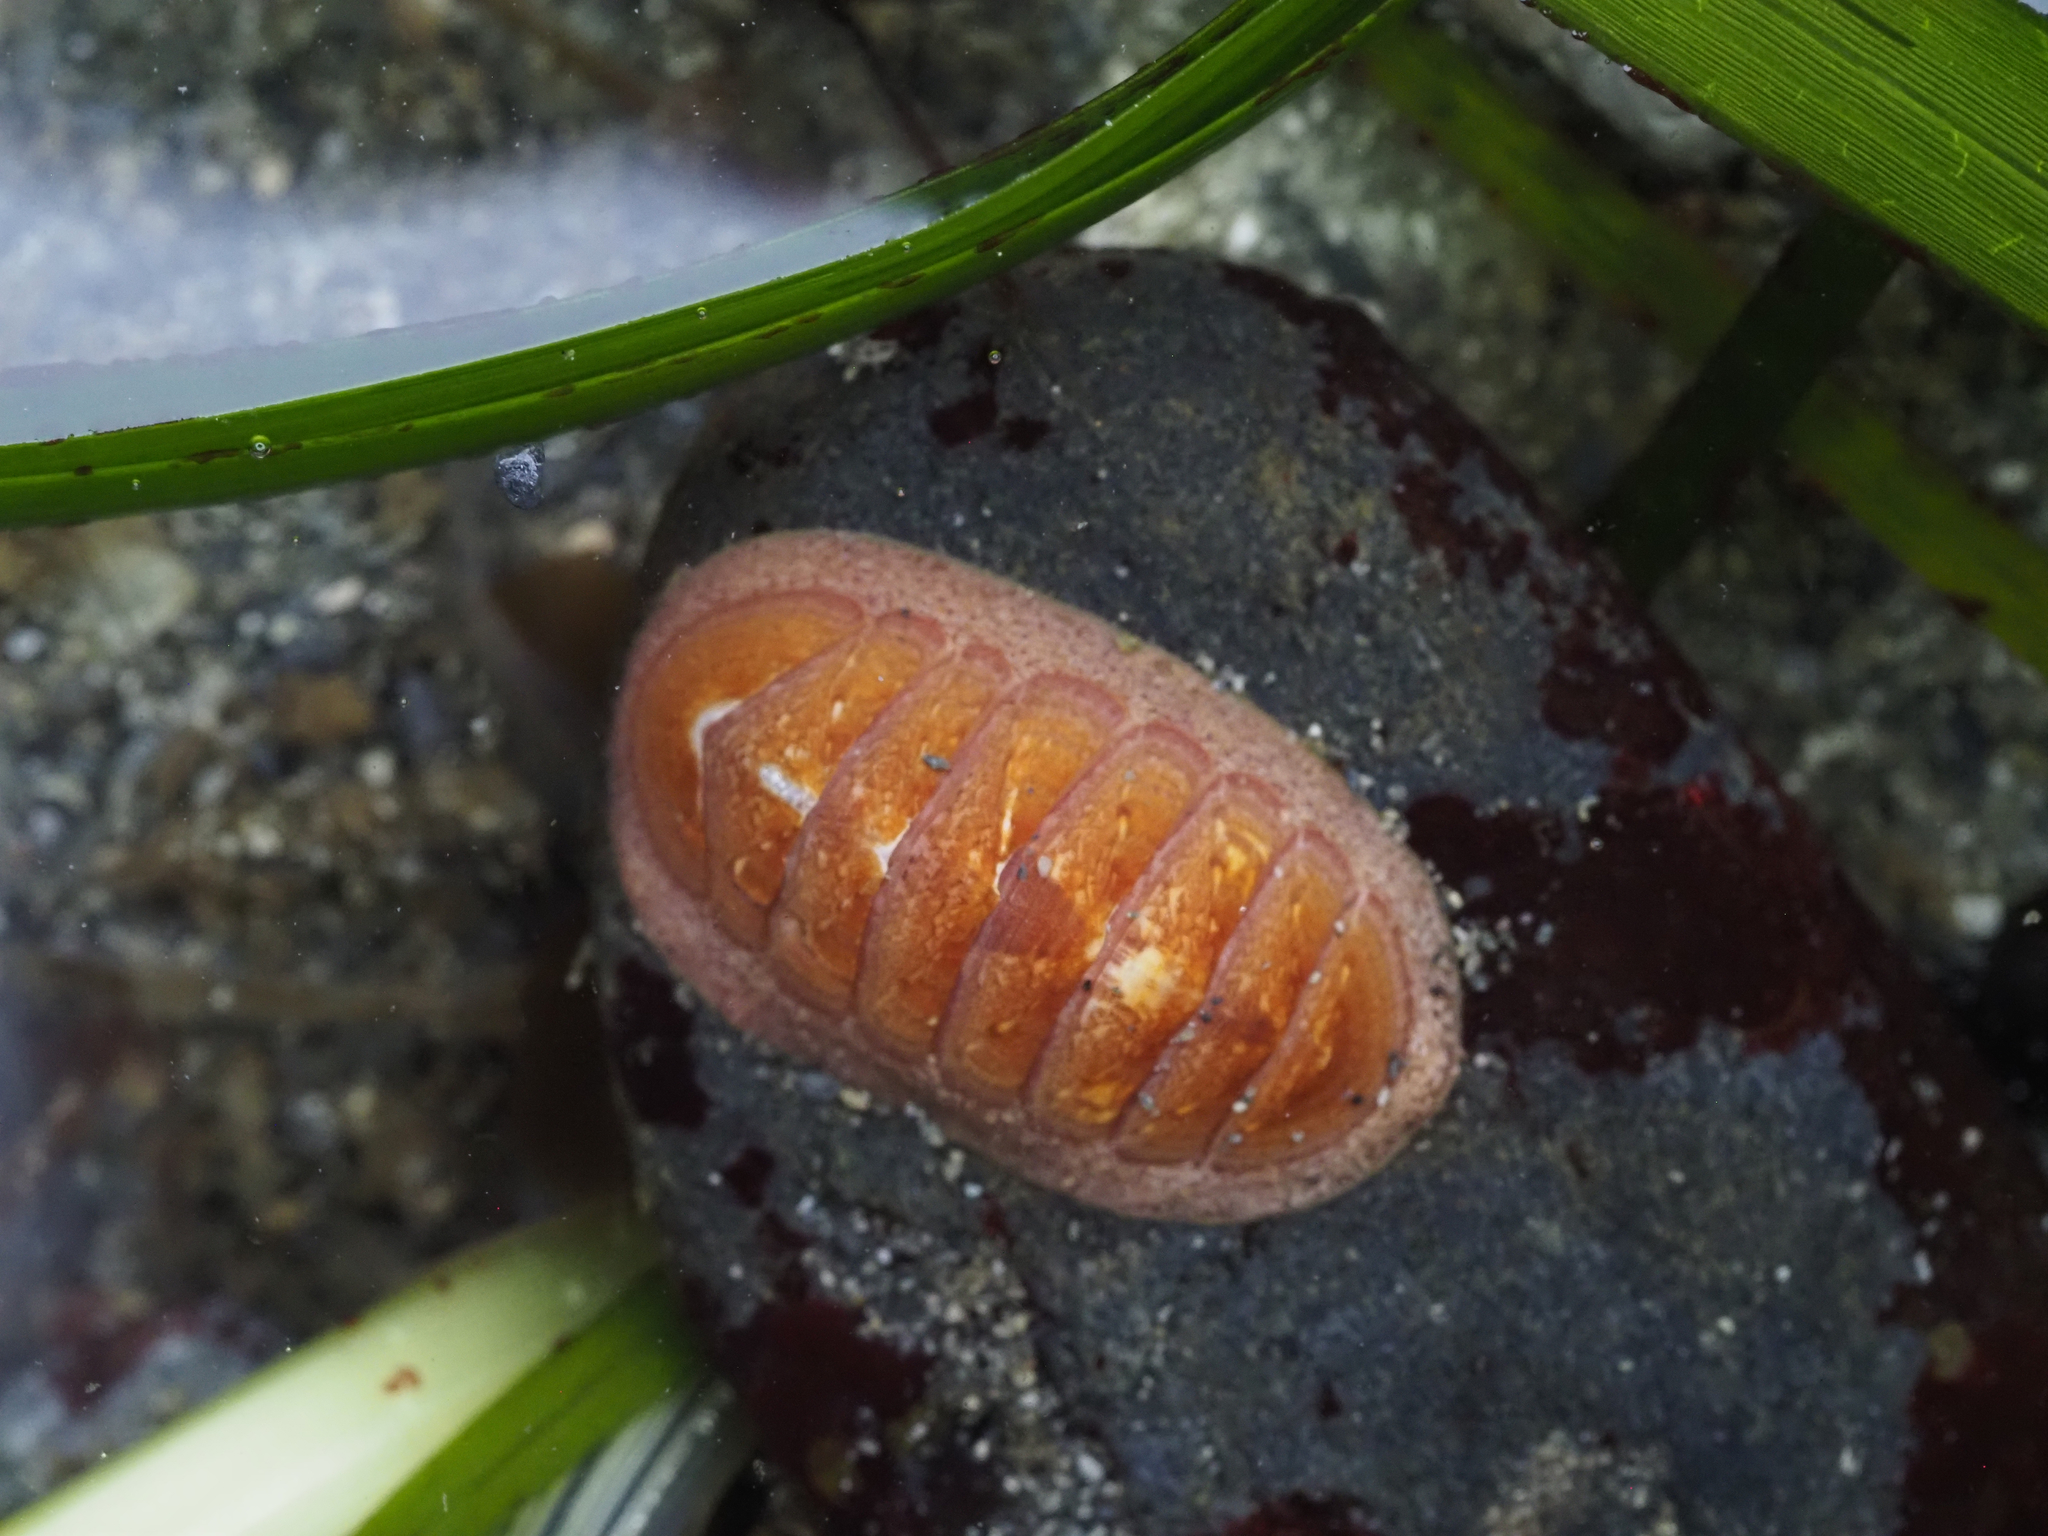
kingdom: Animalia
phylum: Mollusca
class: Polyplacophora
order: Chitonida
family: Ischnochitonidae
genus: Lepidozona
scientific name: Lepidozona interstincta
